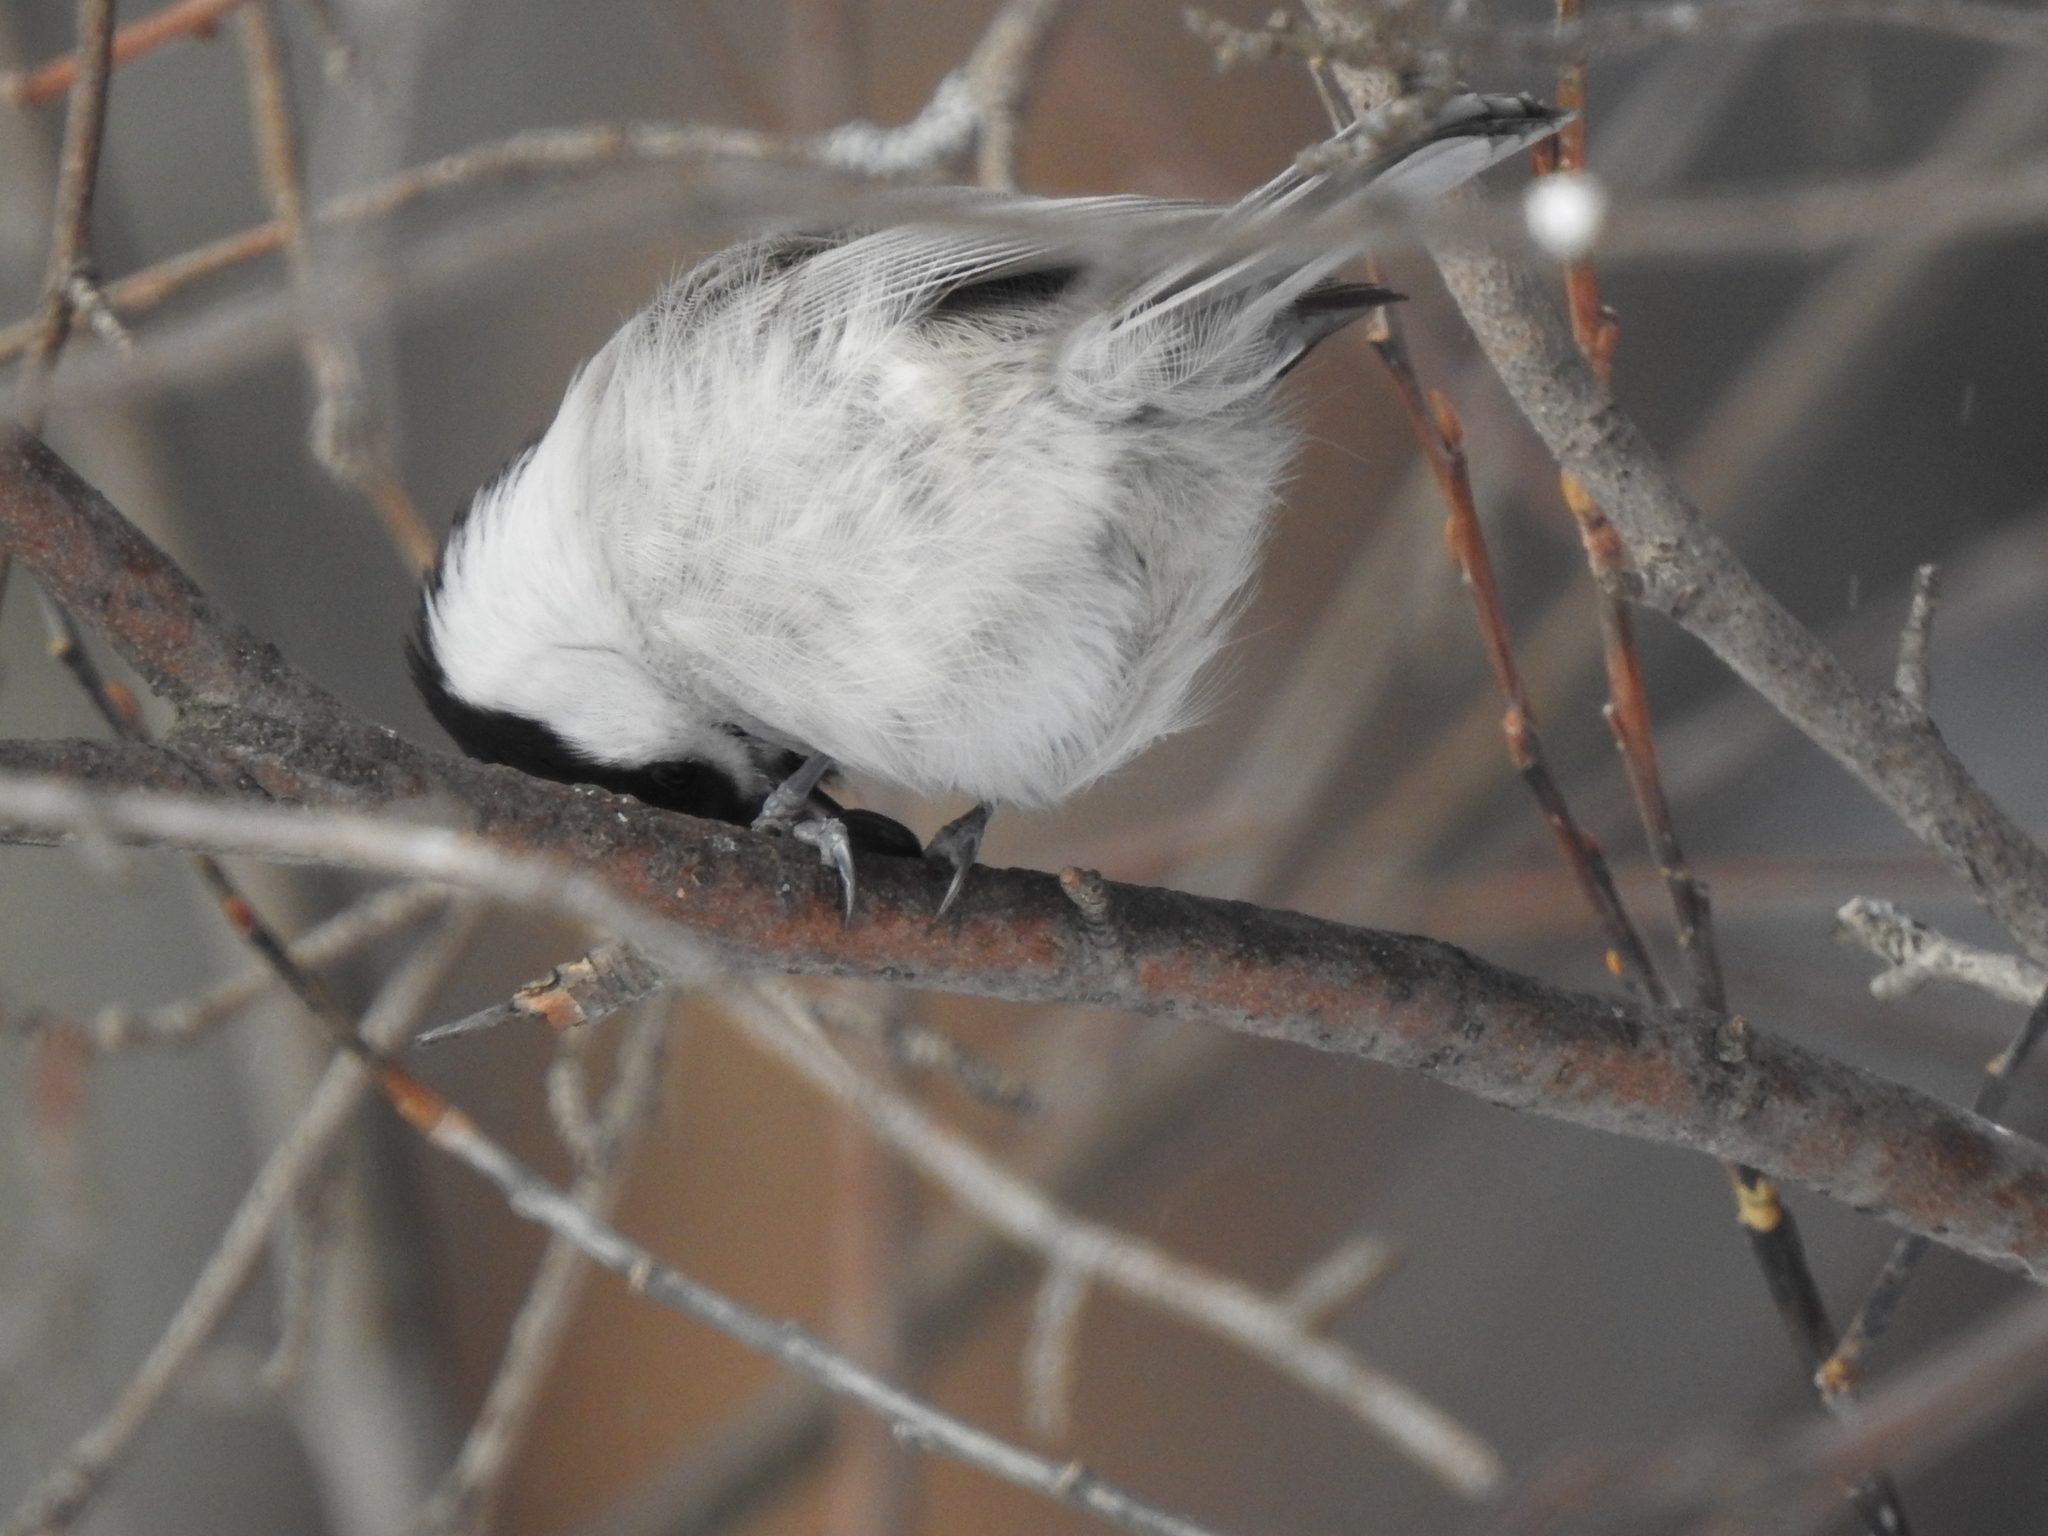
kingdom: Animalia
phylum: Chordata
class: Aves
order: Passeriformes
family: Paridae
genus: Poecile
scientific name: Poecile montanus
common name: Willow tit
